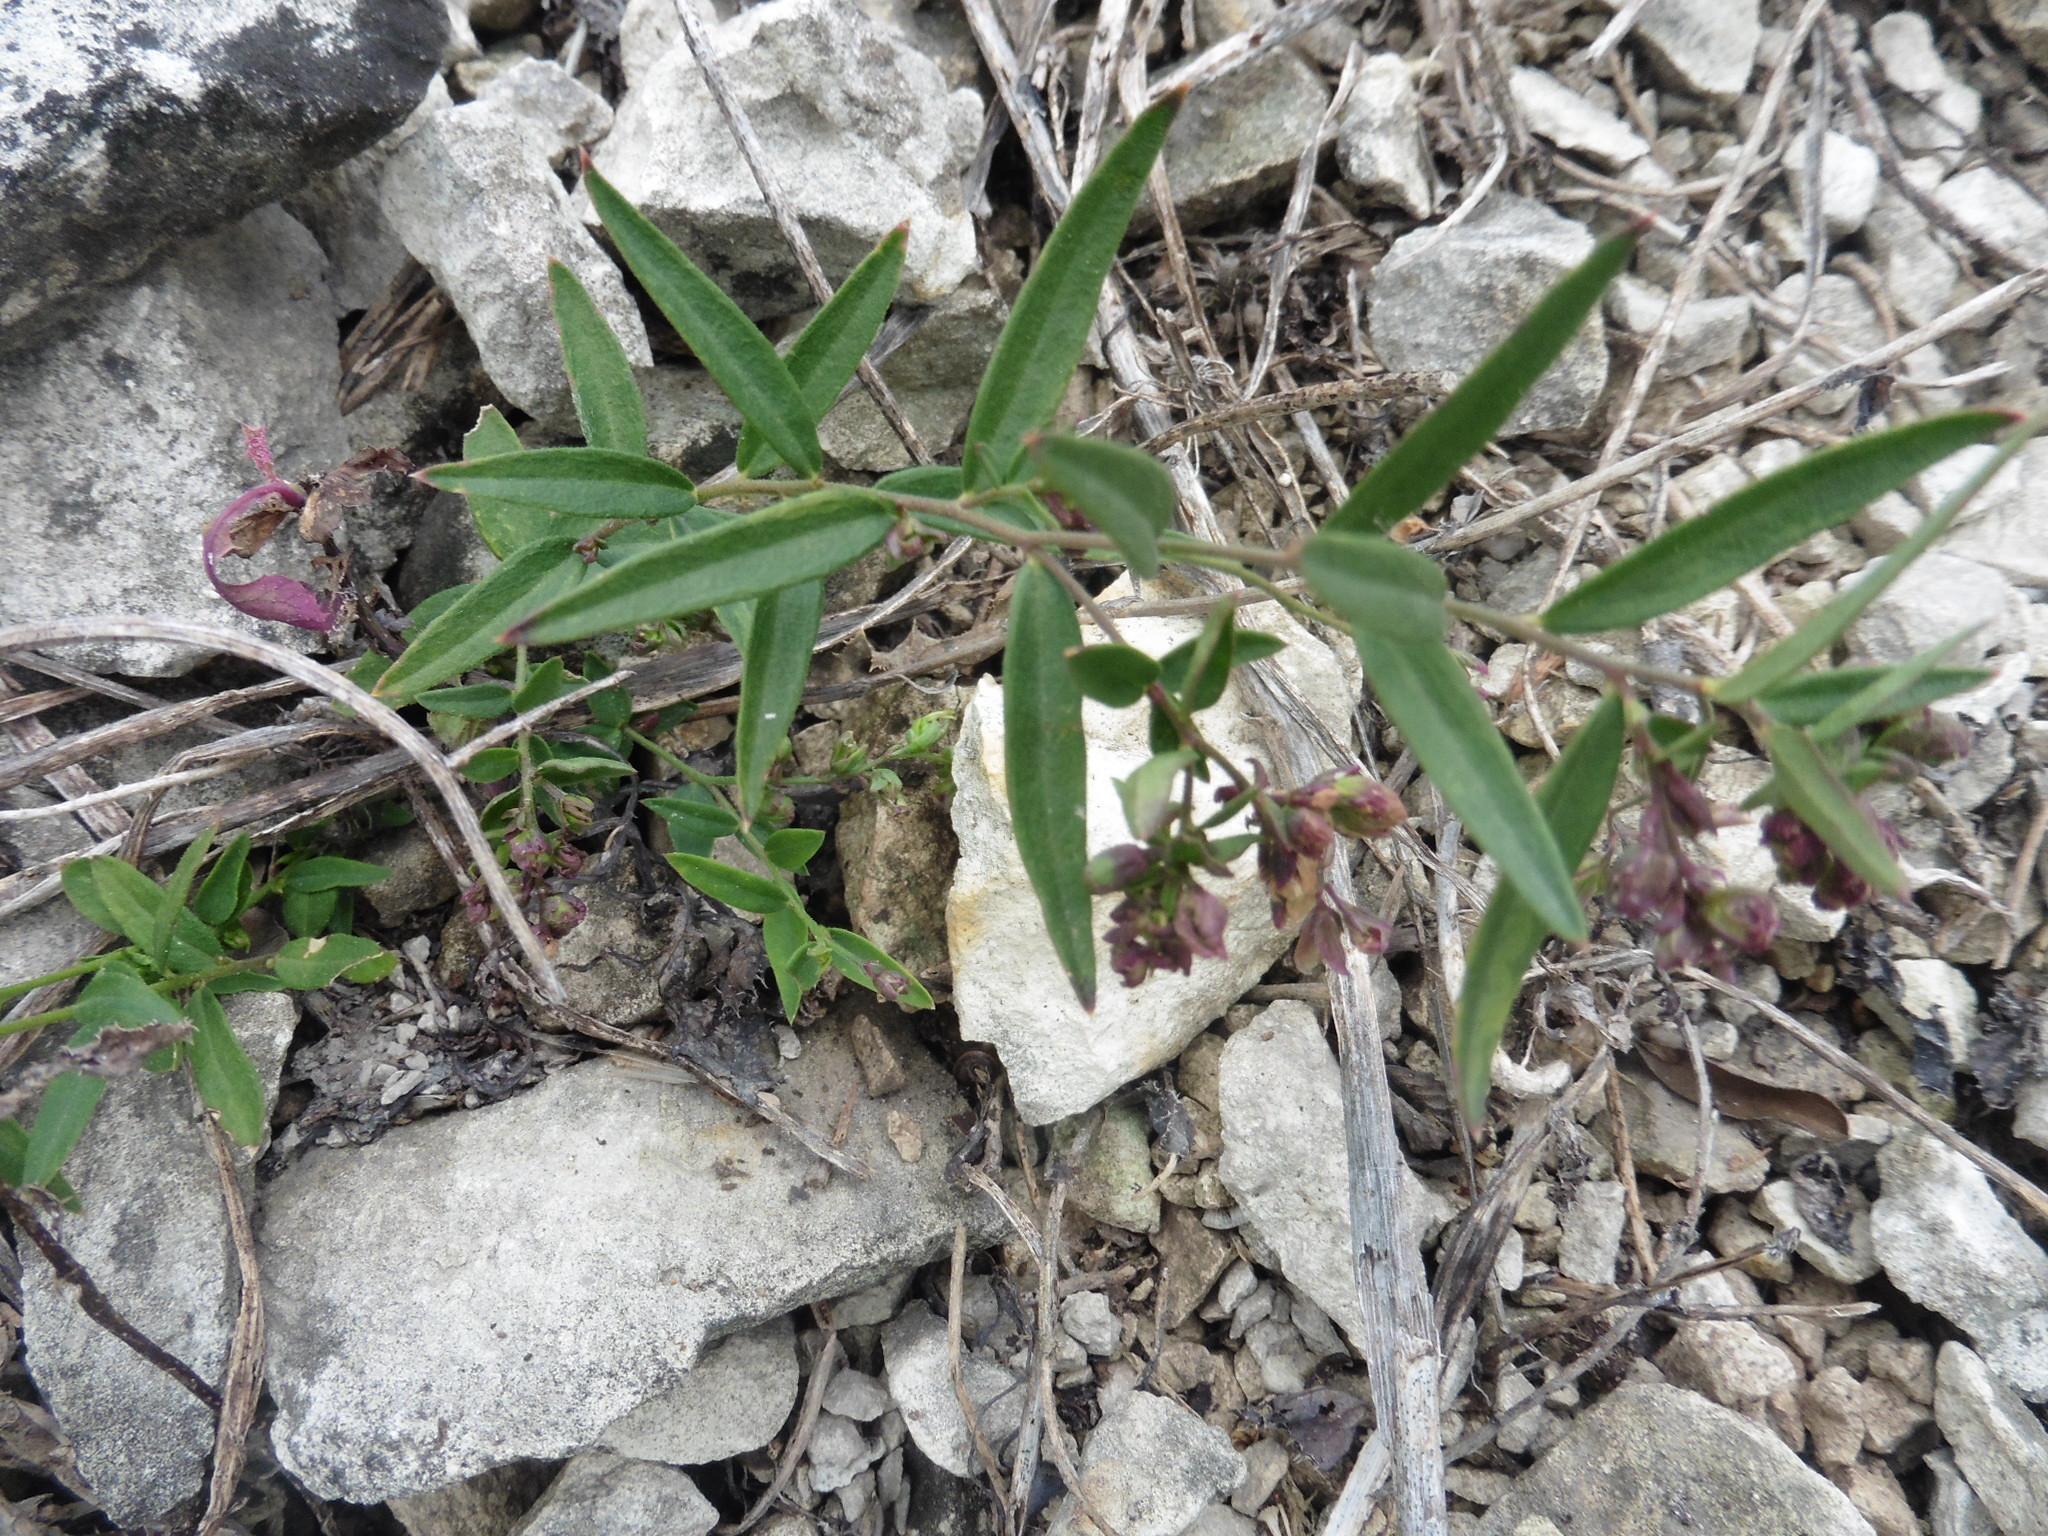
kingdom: Plantae
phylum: Tracheophyta
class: Magnoliopsida
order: Fabales
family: Polygalaceae
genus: Polygala
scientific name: Polygala sibirica
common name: Siberian polygala
